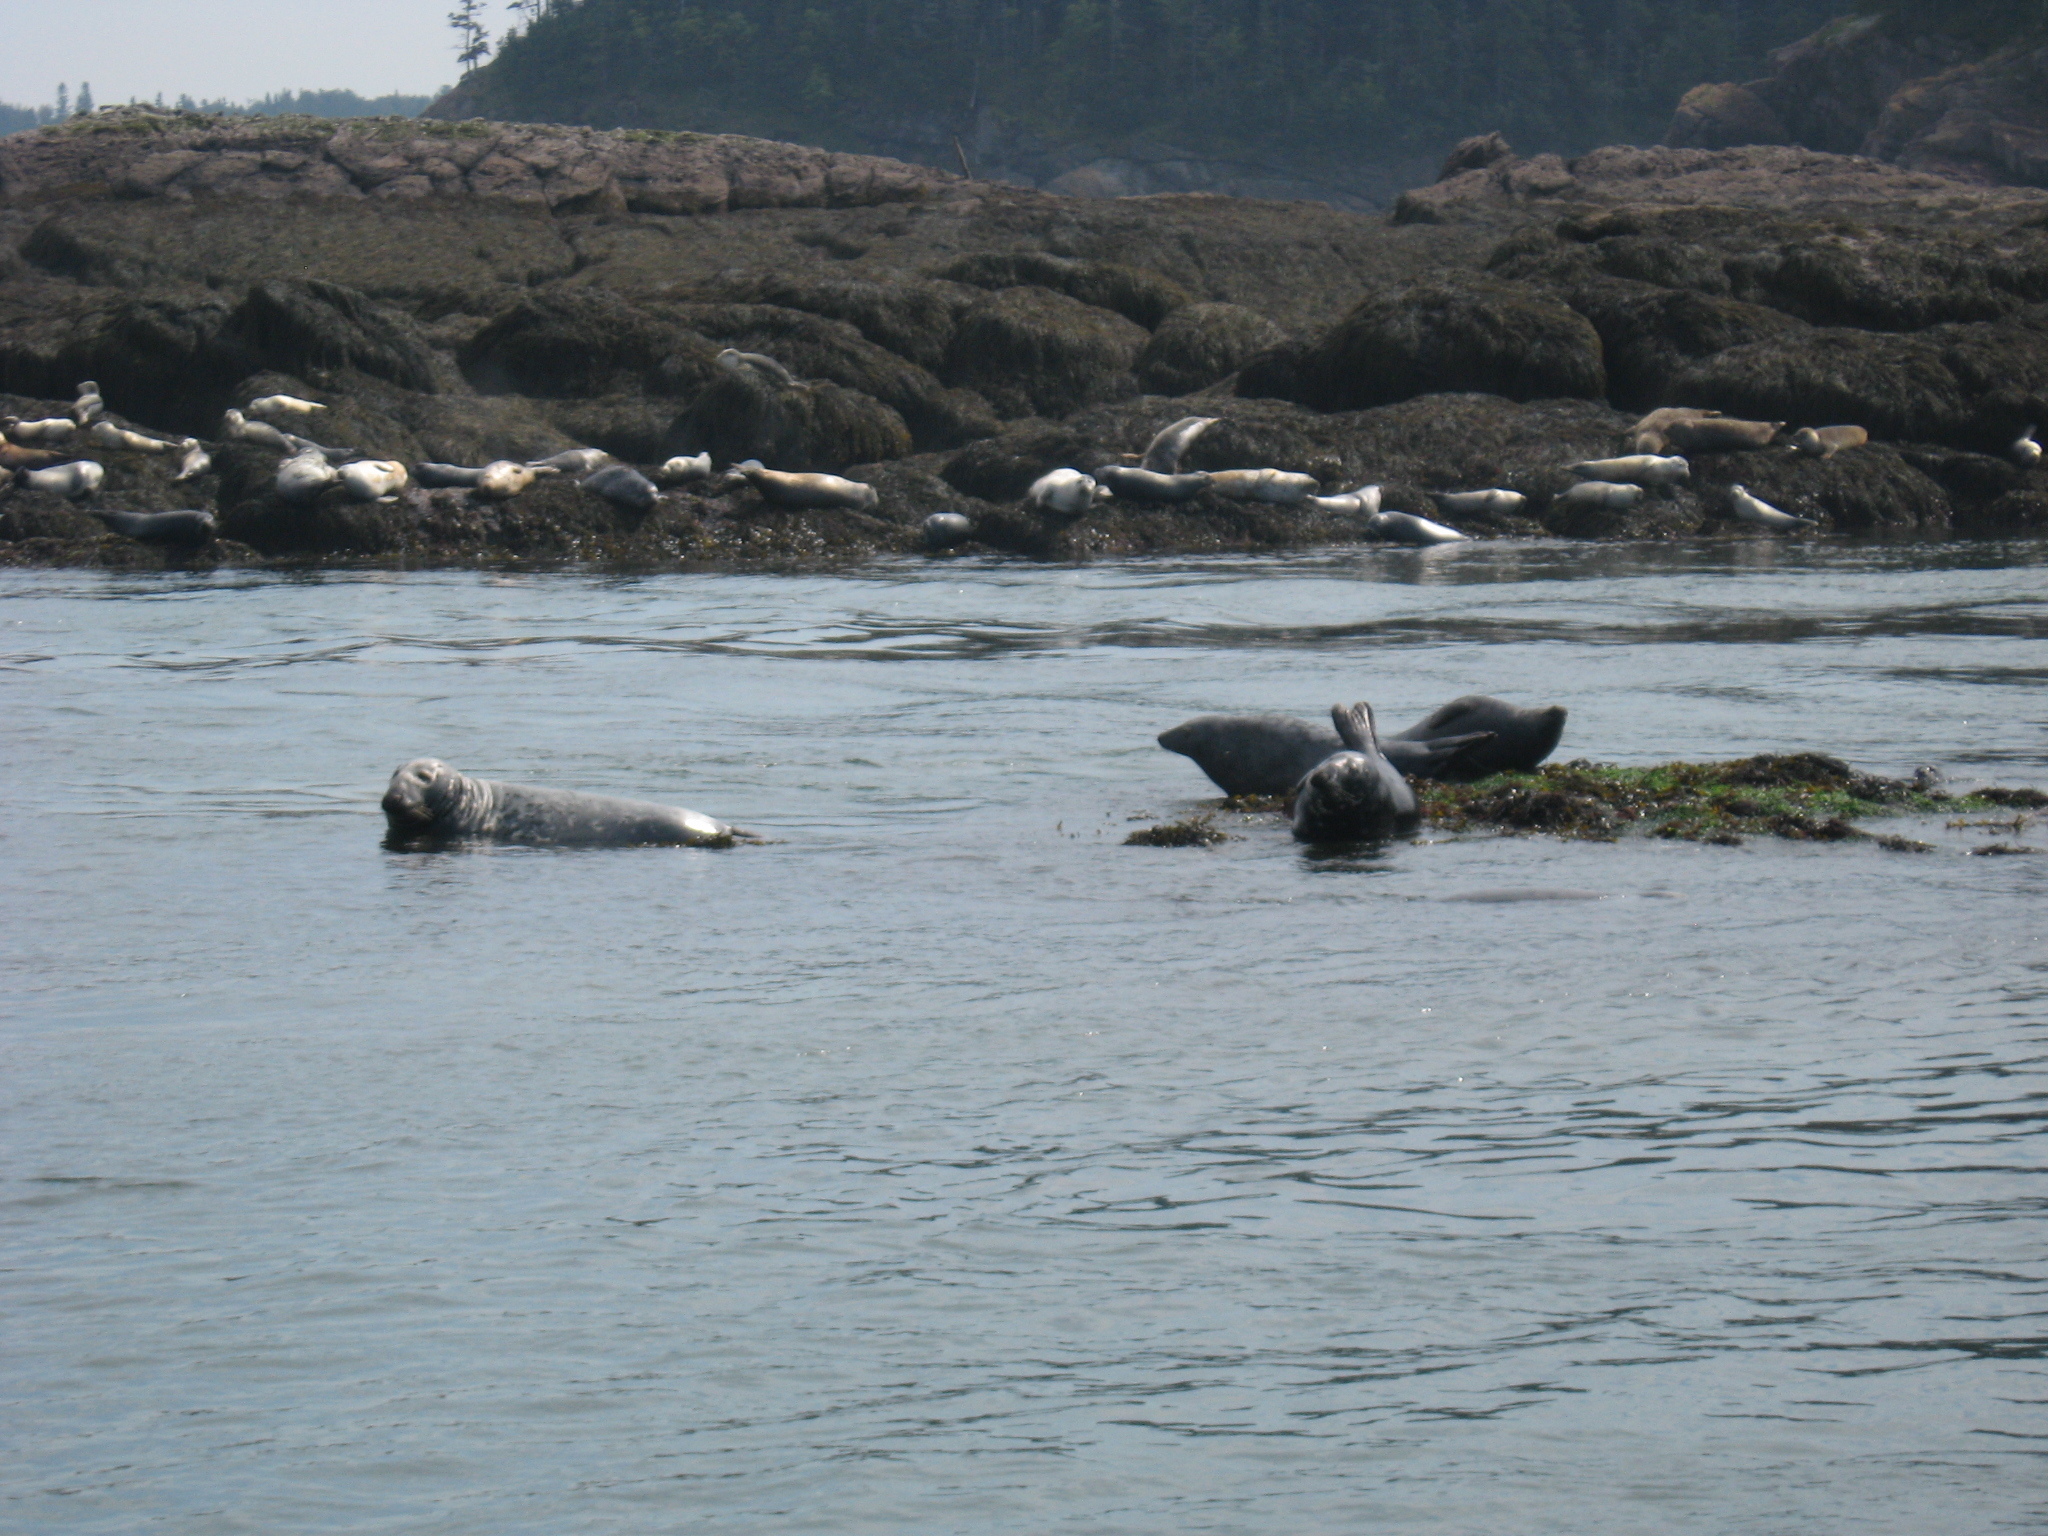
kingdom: Animalia
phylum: Chordata
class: Mammalia
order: Carnivora
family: Phocidae
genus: Halichoerus
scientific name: Halichoerus grypus
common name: Grey seal
